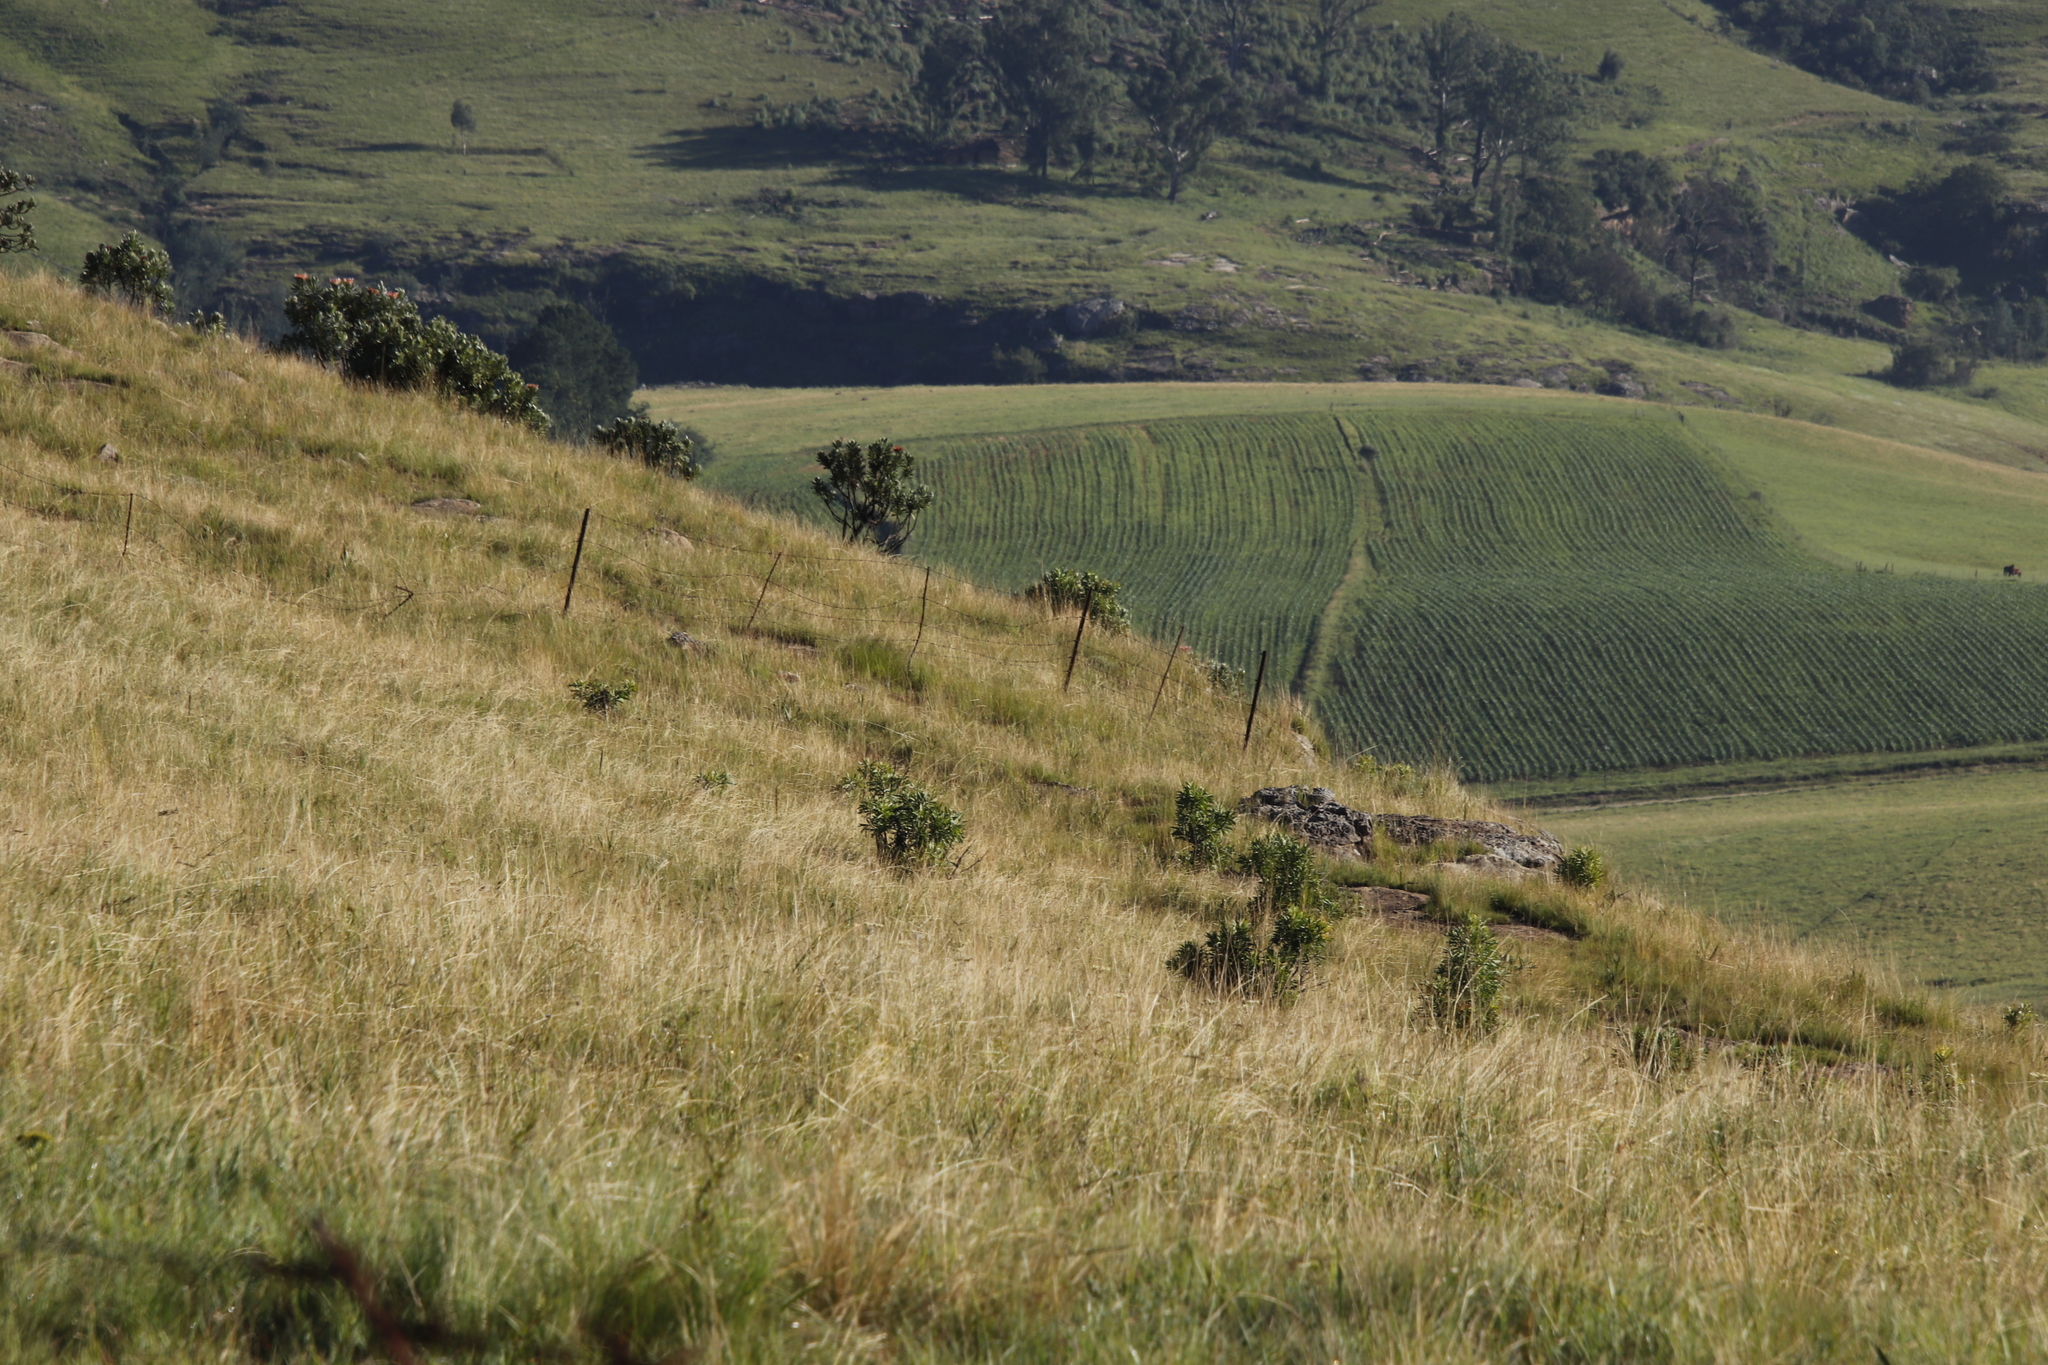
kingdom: Plantae
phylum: Tracheophyta
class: Magnoliopsida
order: Proteales
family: Proteaceae
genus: Protea
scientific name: Protea roupelliae
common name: Silver sugarbush
